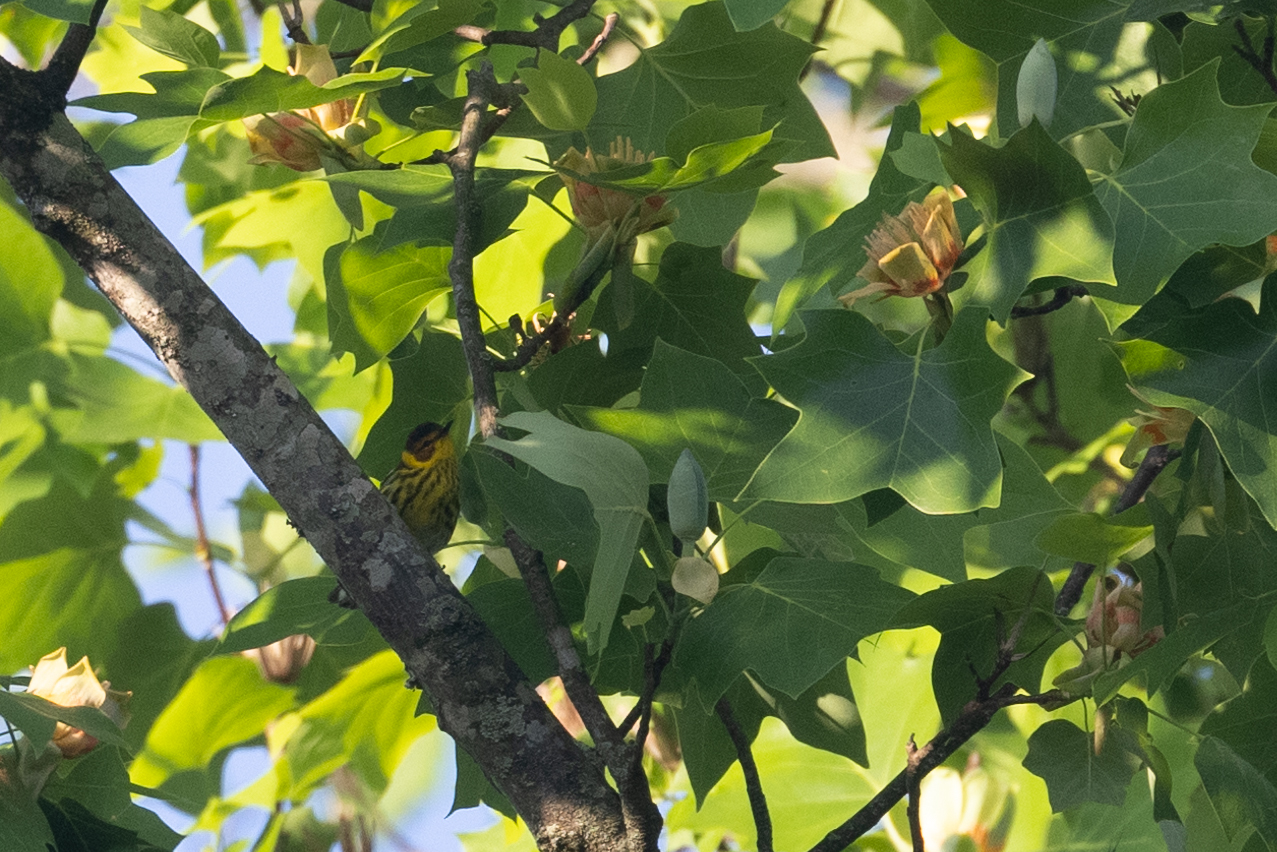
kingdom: Animalia
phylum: Chordata
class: Aves
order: Passeriformes
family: Parulidae
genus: Setophaga
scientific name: Setophaga tigrina
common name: Cape may warbler
